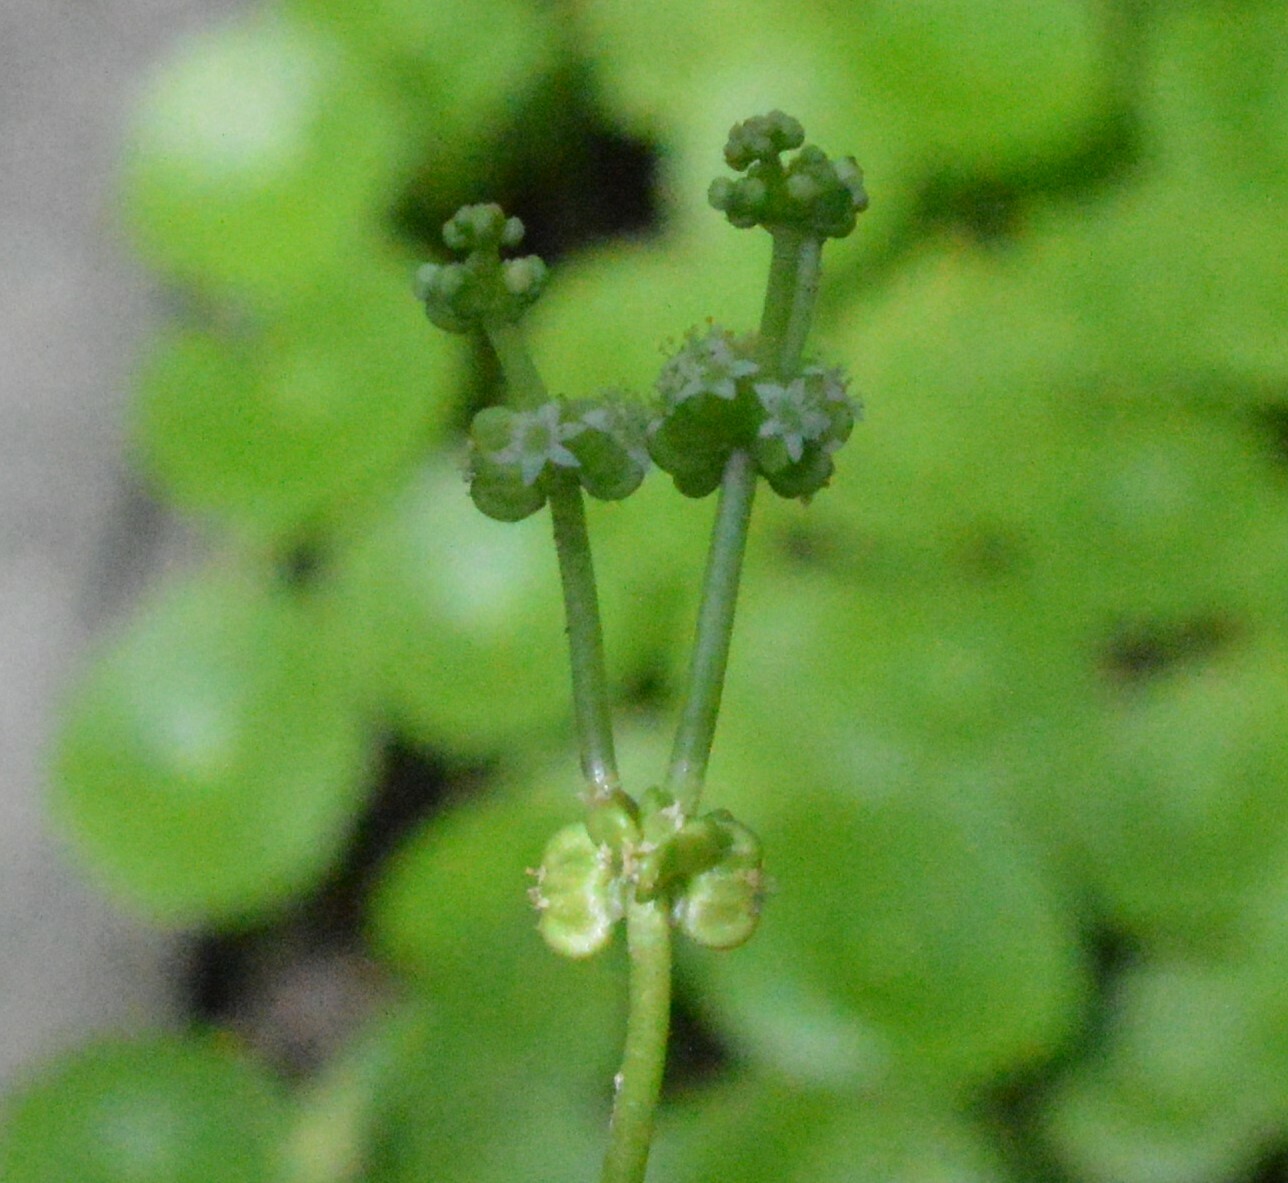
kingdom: Plantae
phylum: Tracheophyta
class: Magnoliopsida
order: Apiales
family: Araliaceae
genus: Hydrocotyle
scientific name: Hydrocotyle verticillata
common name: Whorled marshpennywort
